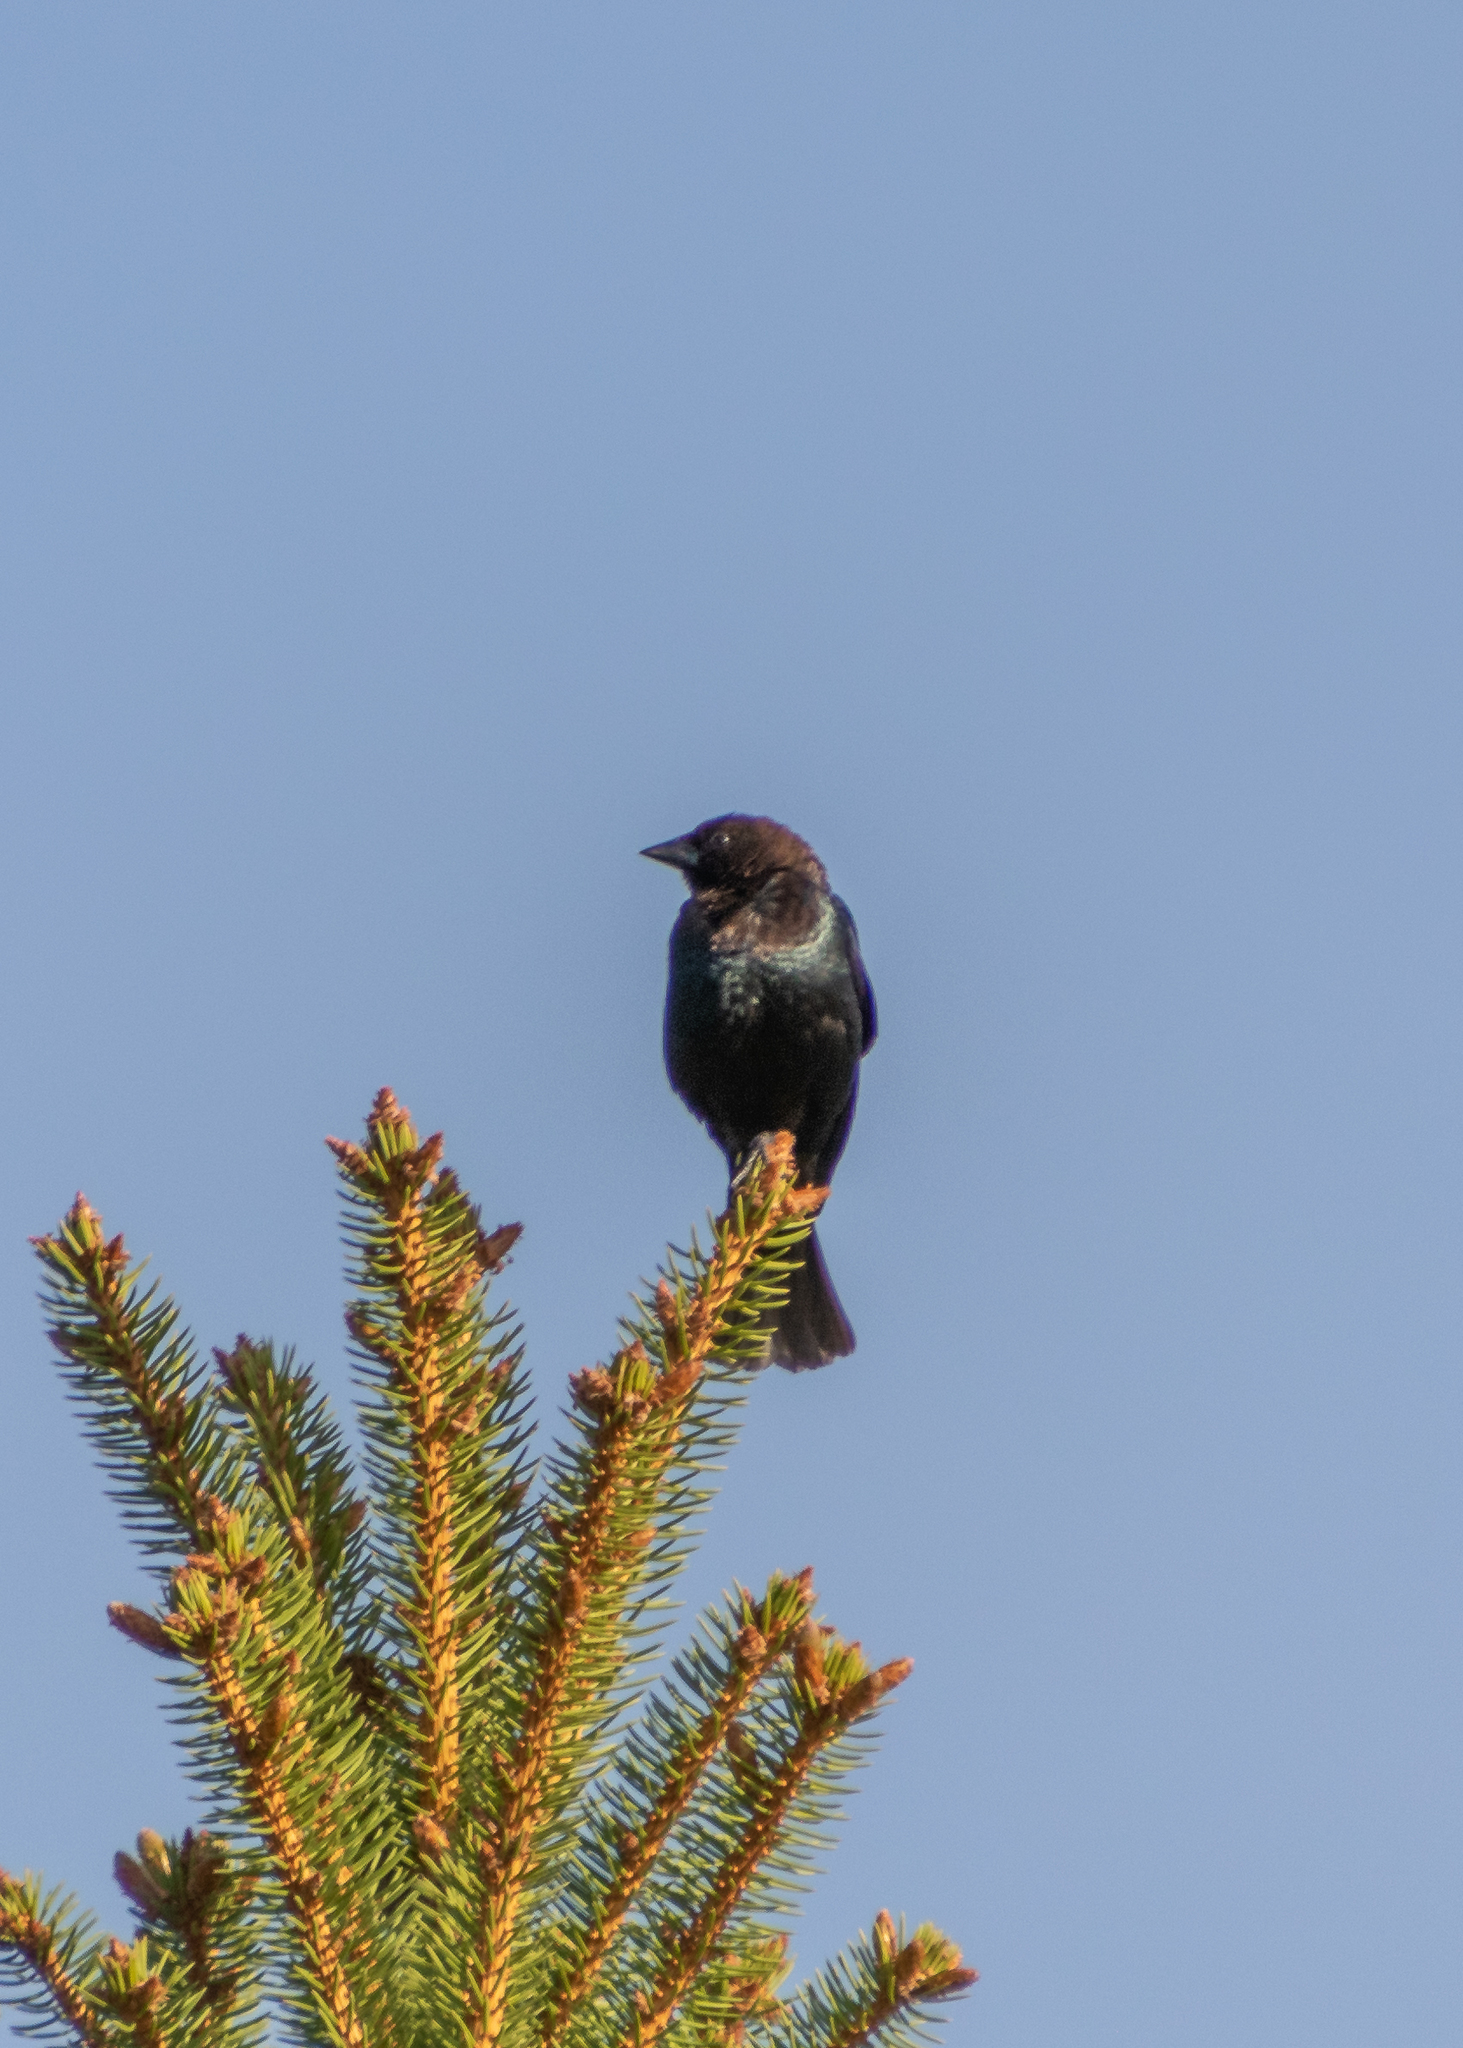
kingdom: Animalia
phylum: Chordata
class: Aves
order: Passeriformes
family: Icteridae
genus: Molothrus
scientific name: Molothrus ater
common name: Brown-headed cowbird
